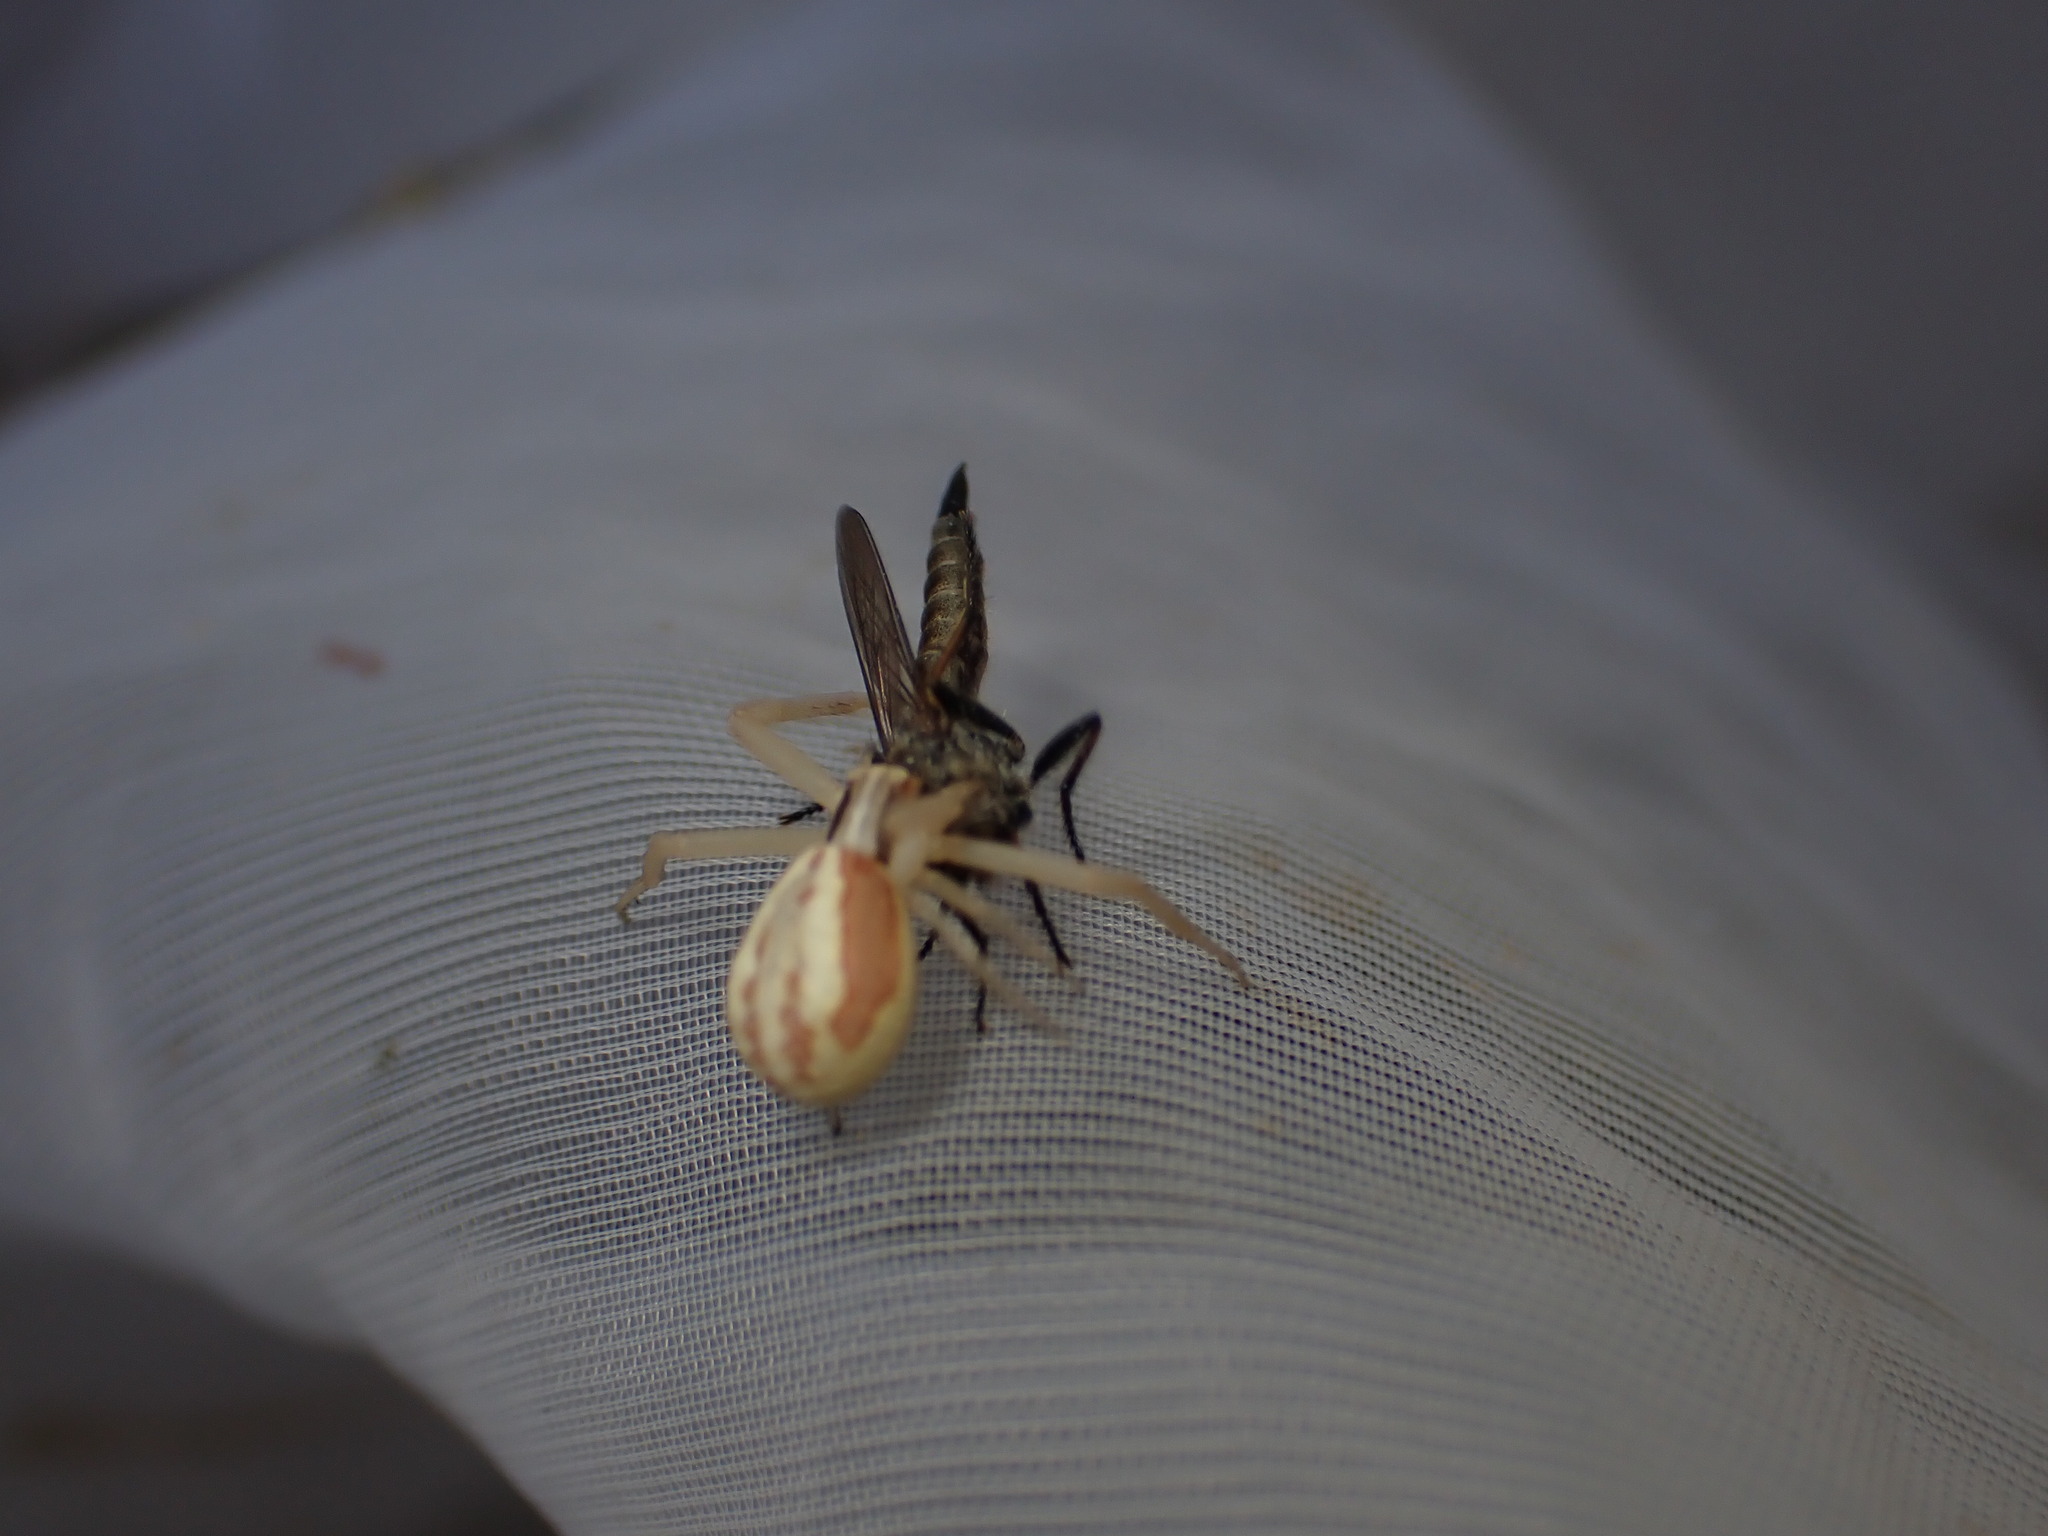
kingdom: Animalia
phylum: Arthropoda
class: Arachnida
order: Araneae
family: Thomisidae
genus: Runcinia
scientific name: Runcinia grammica
